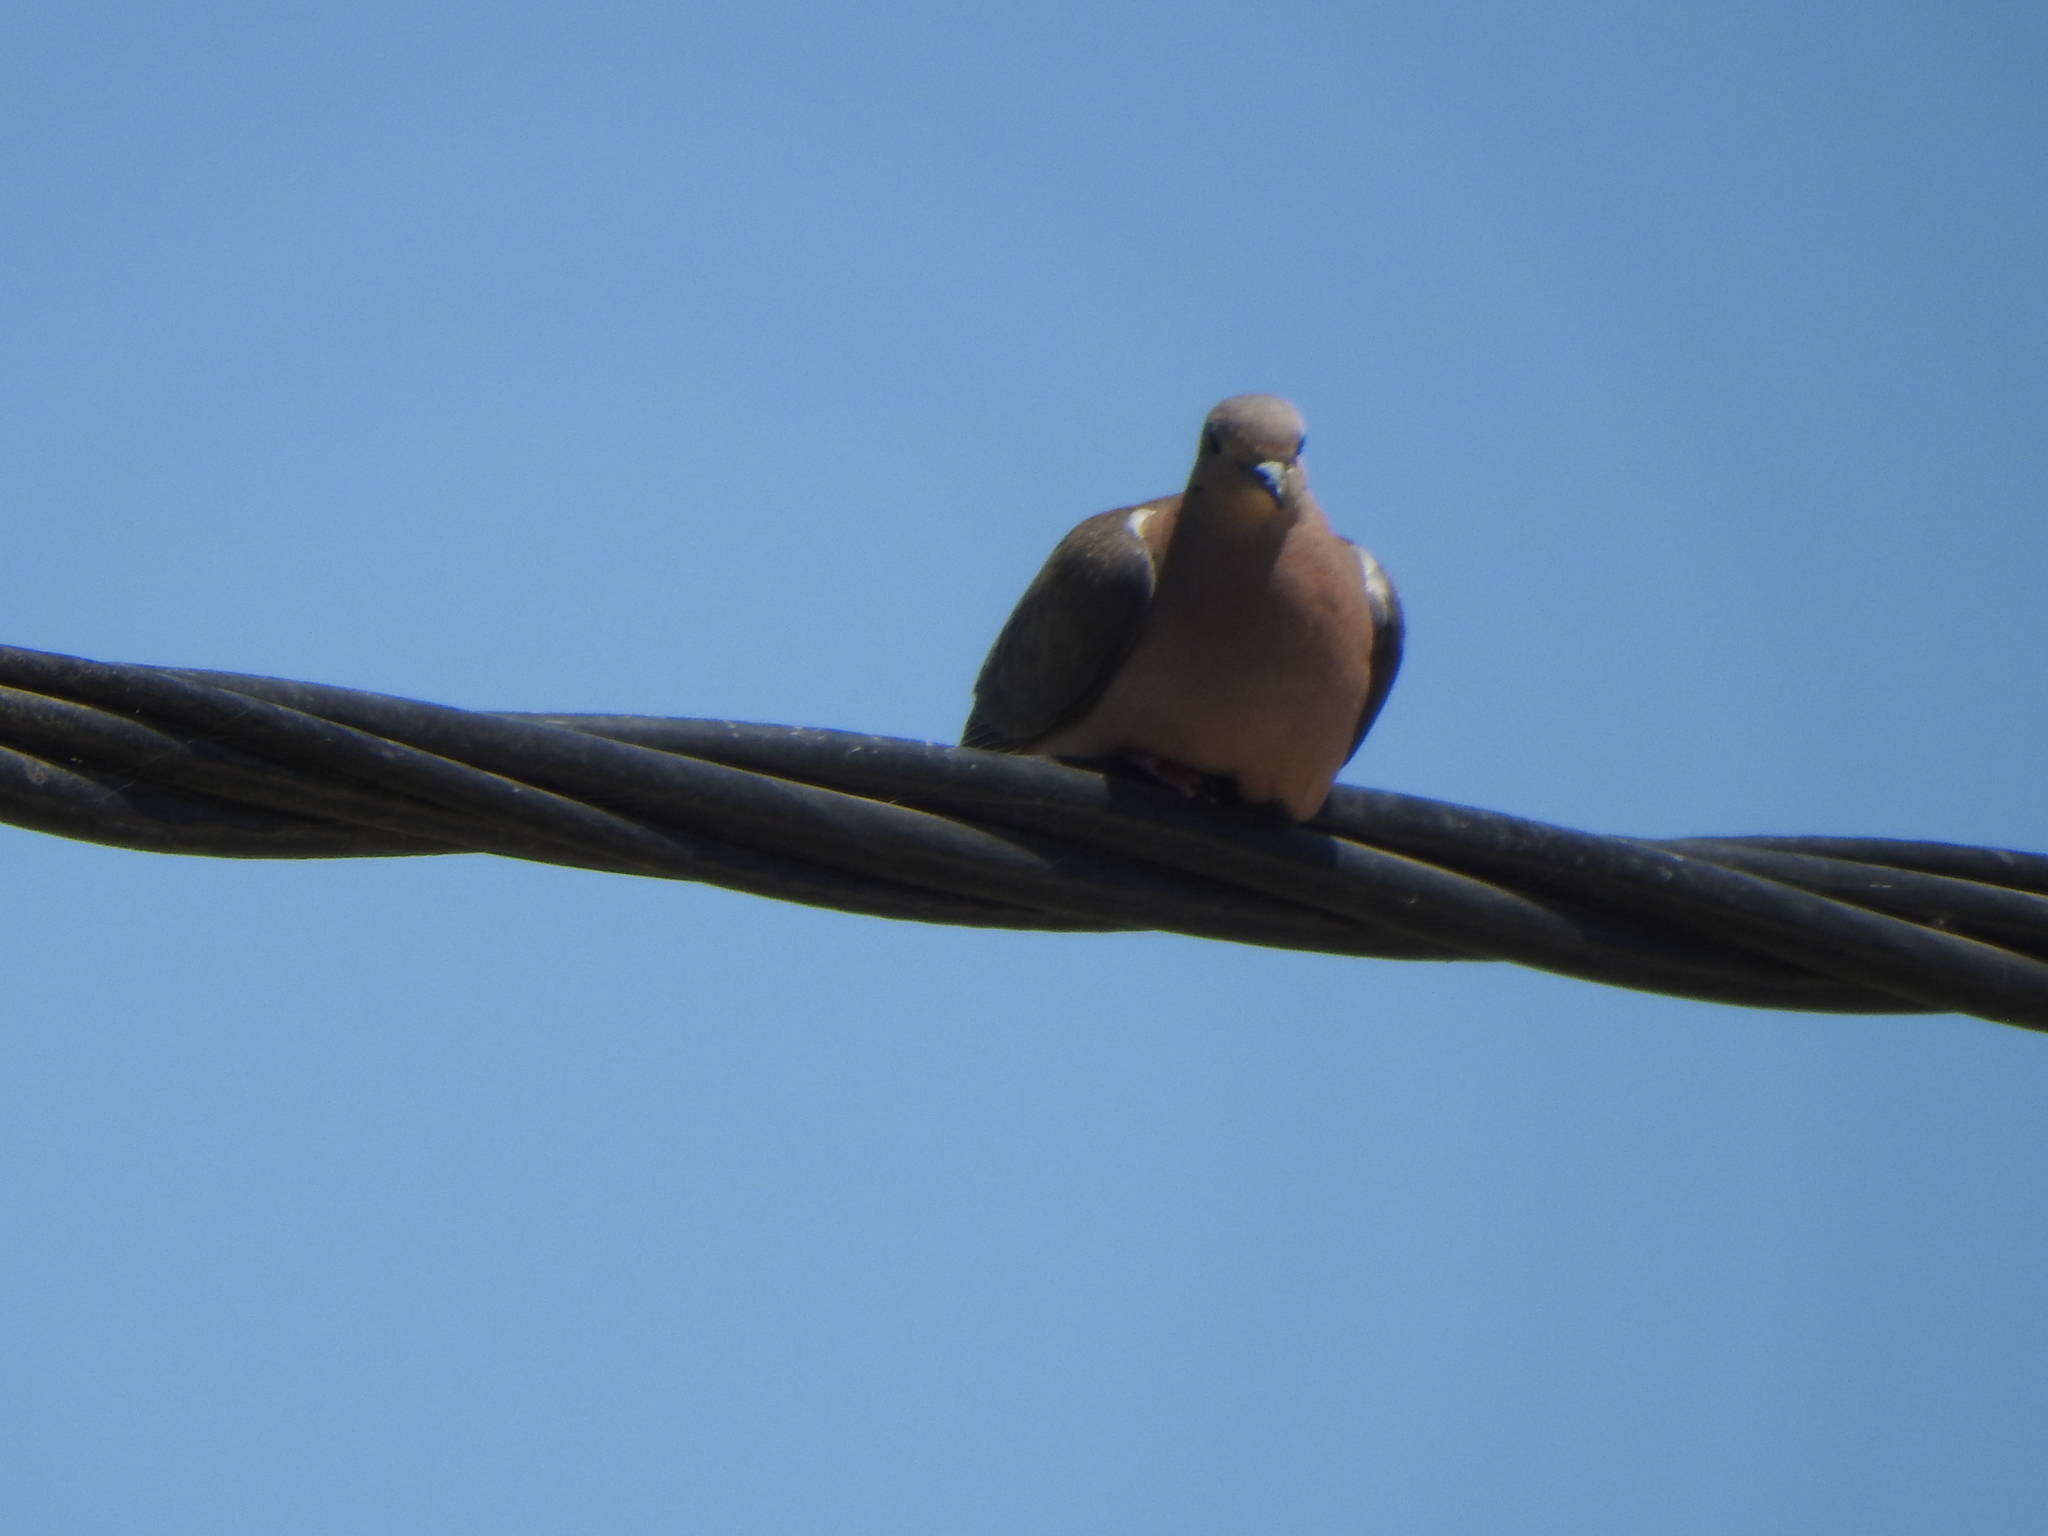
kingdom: Animalia
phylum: Chordata
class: Aves
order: Columbiformes
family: Columbidae
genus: Zenaida
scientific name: Zenaida auriculata
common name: Eared dove
